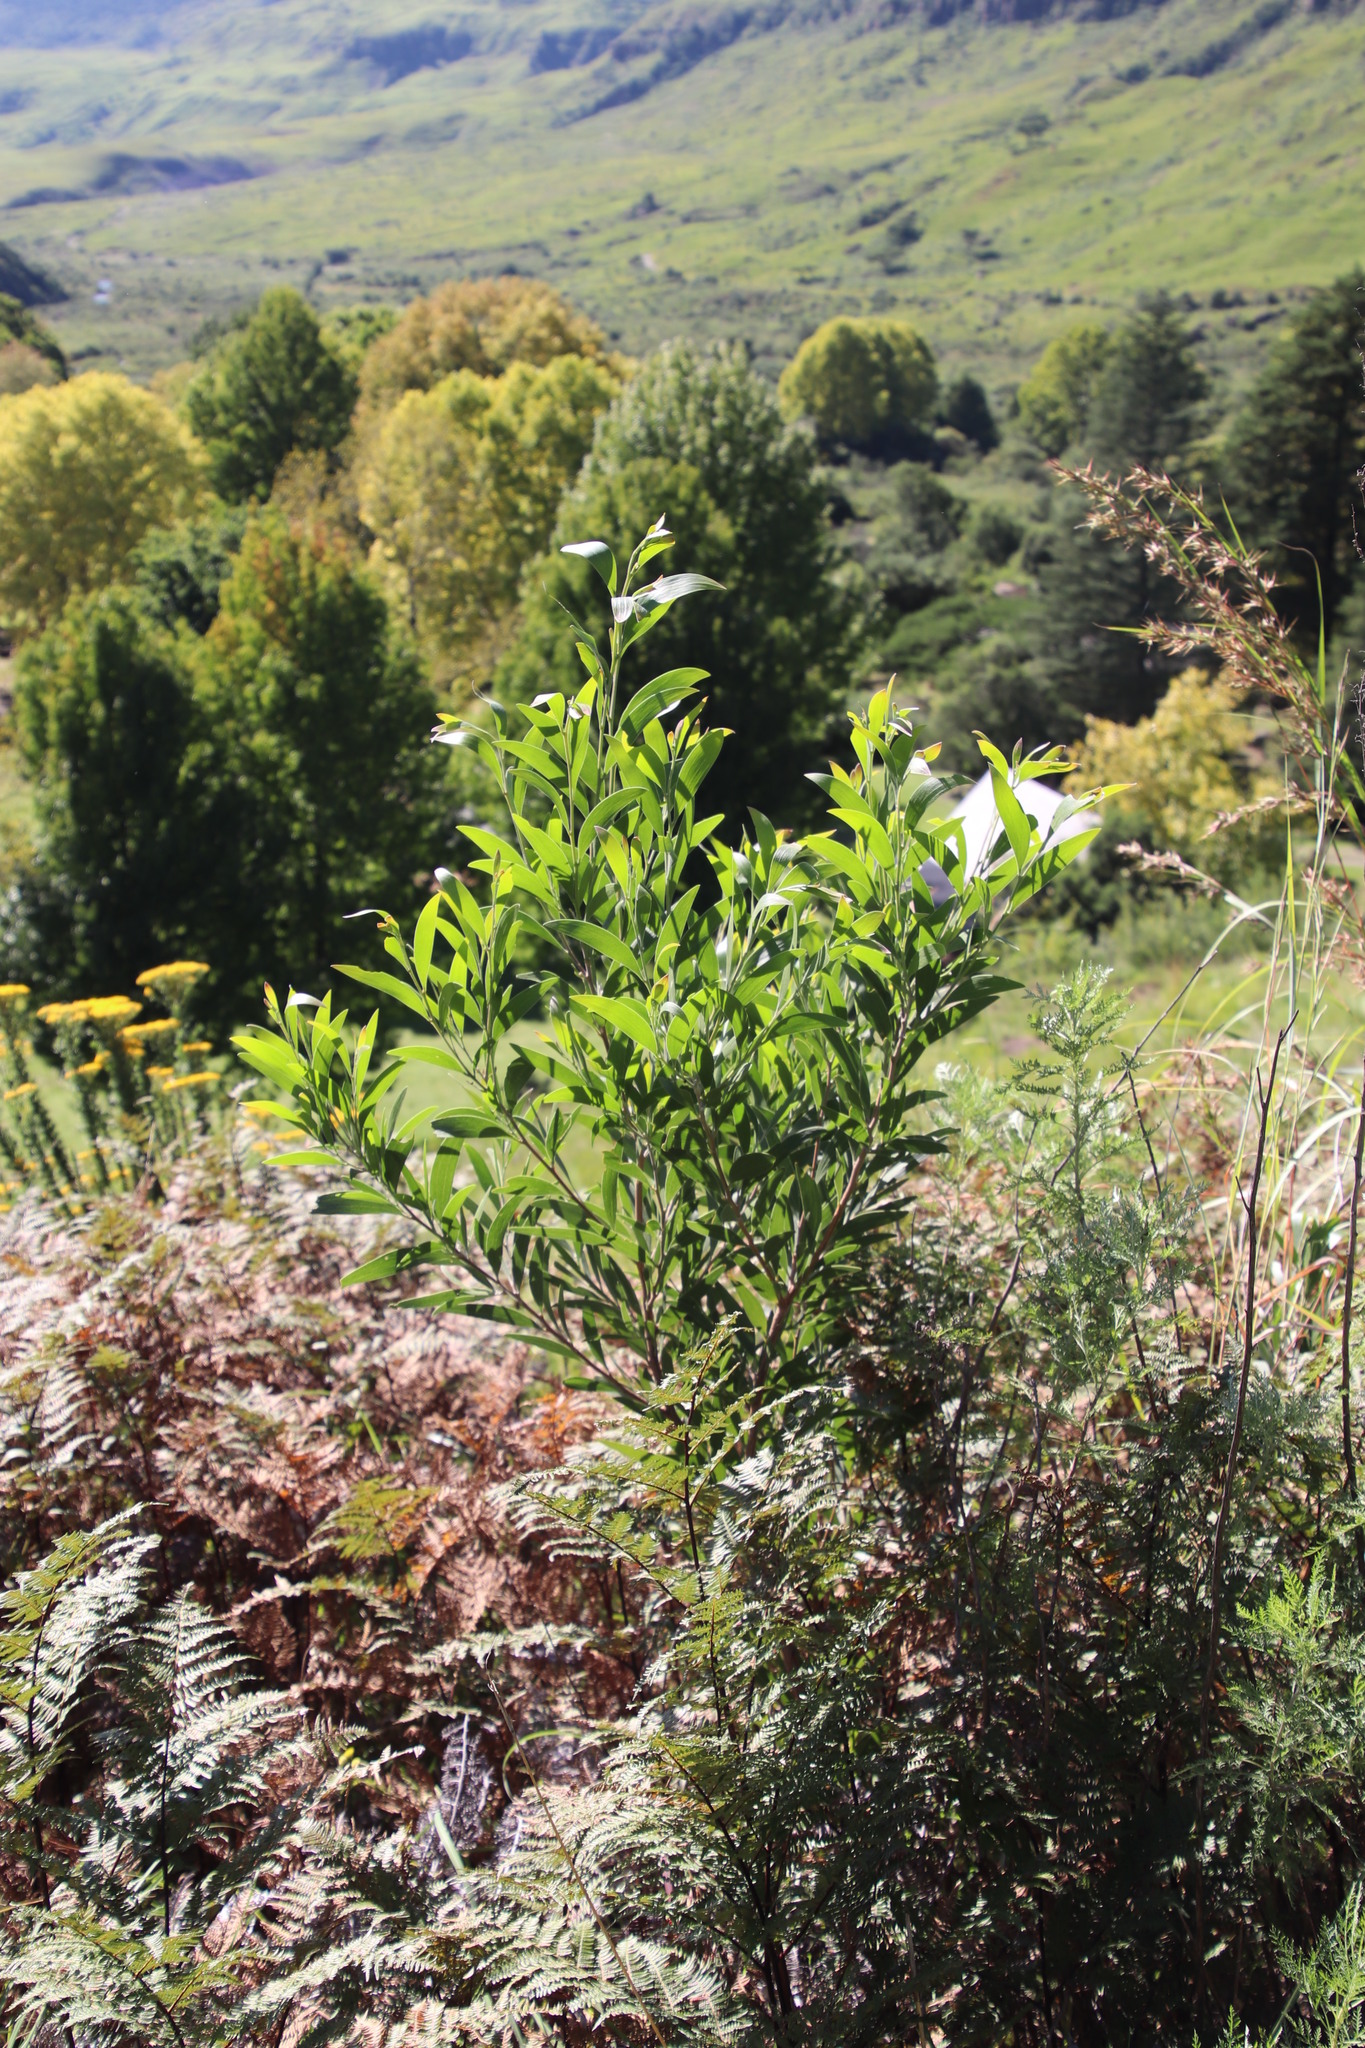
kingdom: Plantae
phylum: Tracheophyta
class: Magnoliopsida
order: Fabales
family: Fabaceae
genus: Acacia
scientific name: Acacia melanoxylon
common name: Blackwood
